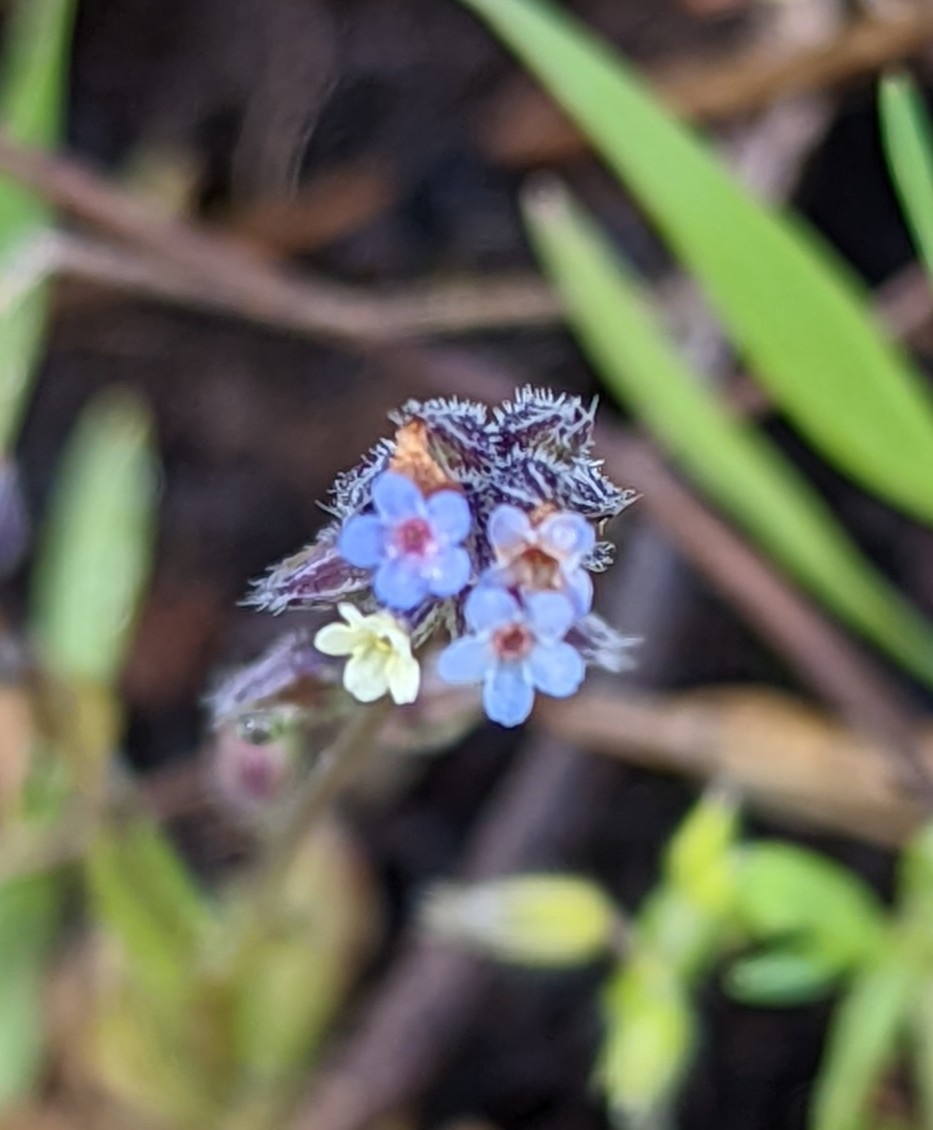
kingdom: Plantae
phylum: Tracheophyta
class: Magnoliopsida
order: Boraginales
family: Boraginaceae
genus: Myosotis
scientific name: Myosotis discolor
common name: Changing forget-me-not
